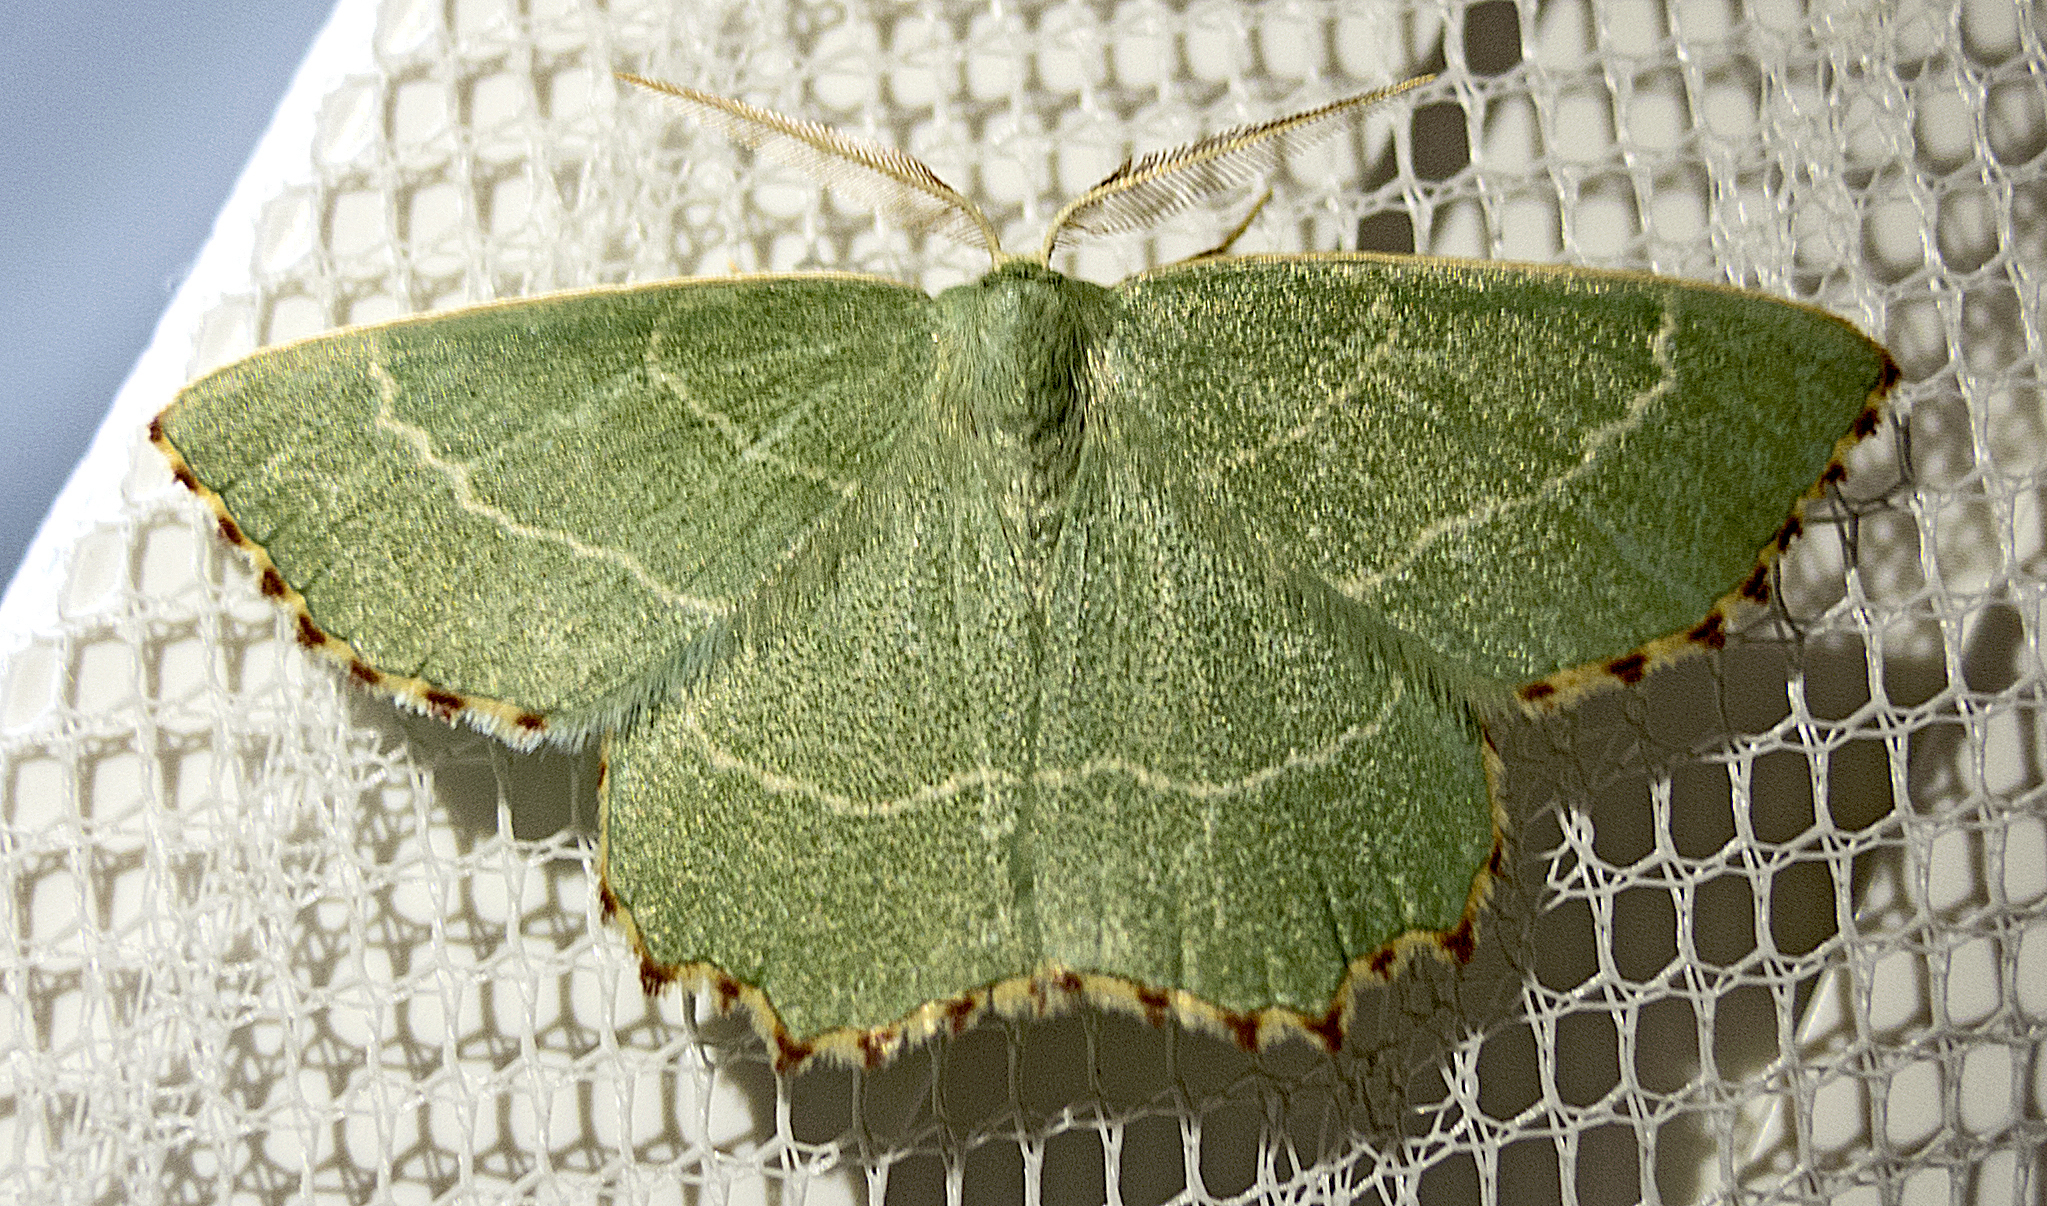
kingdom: Animalia
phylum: Arthropoda
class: Insecta
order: Lepidoptera
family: Geometridae
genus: Thalera
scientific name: Thalera fimbrialis
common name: Sussex emerald
